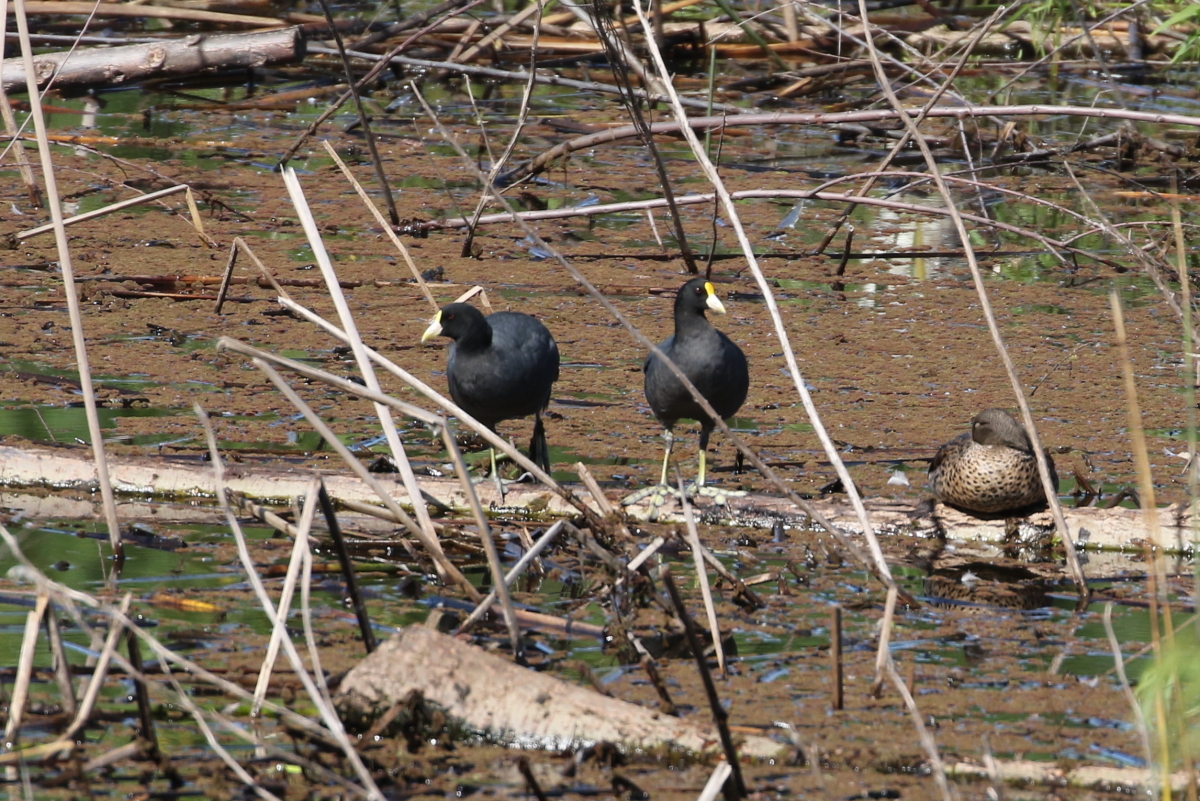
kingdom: Animalia
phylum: Chordata
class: Aves
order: Gruiformes
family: Rallidae
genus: Fulica
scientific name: Fulica leucoptera
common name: White-winged coot
